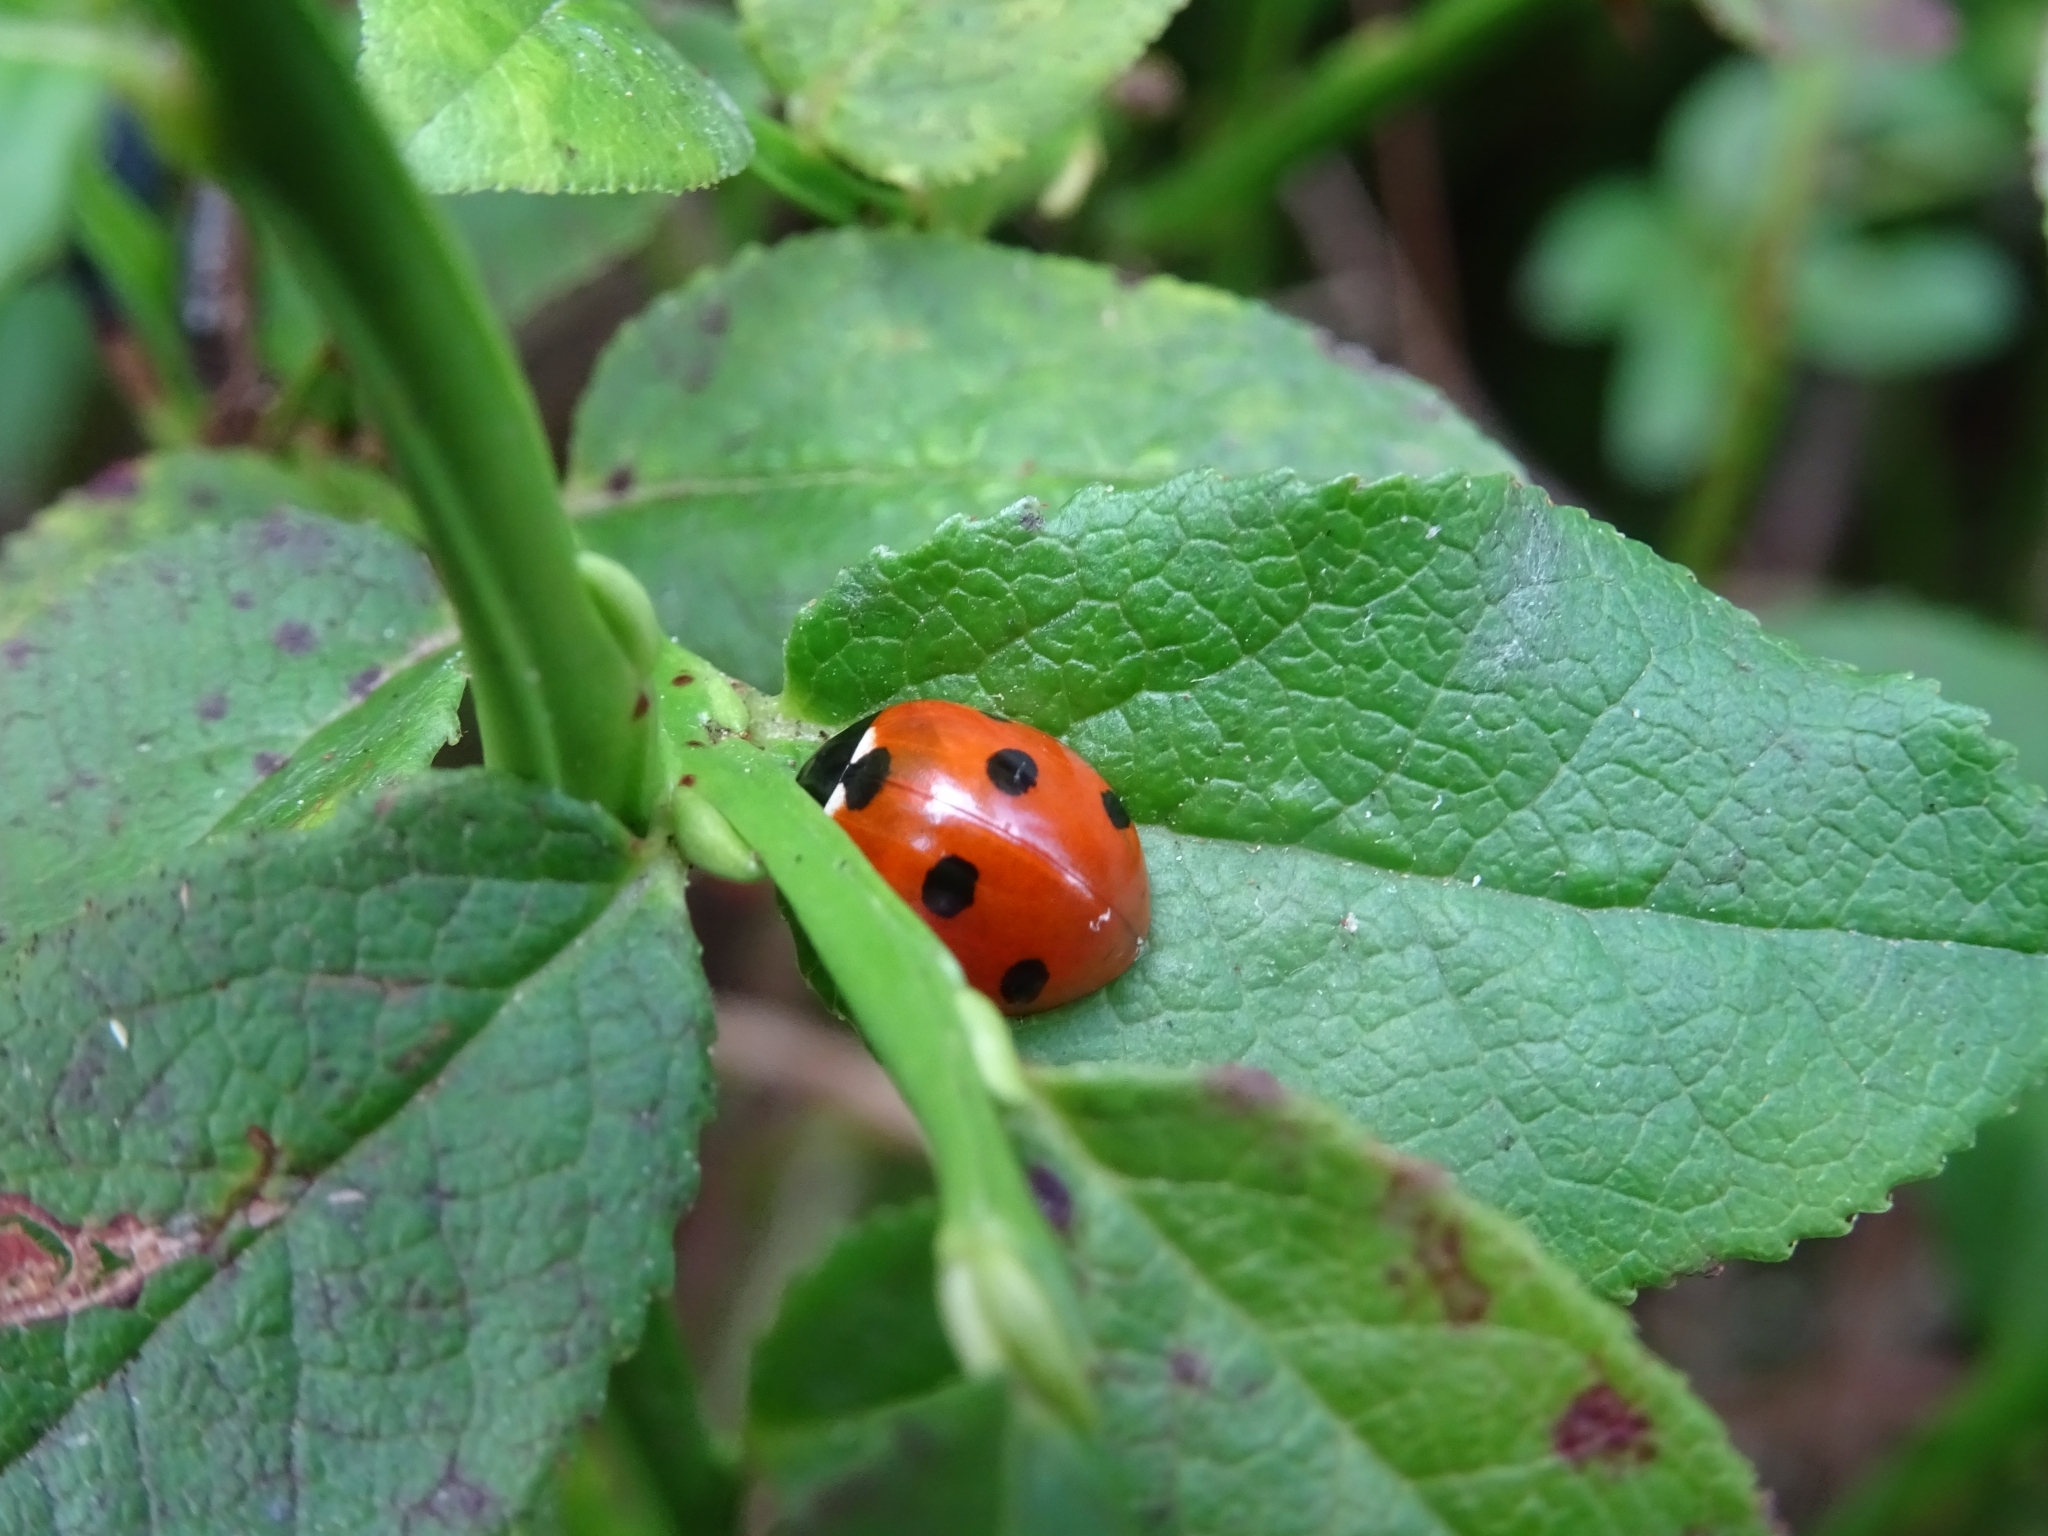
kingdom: Animalia
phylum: Arthropoda
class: Insecta
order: Coleoptera
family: Coccinellidae
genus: Coccinella
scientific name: Coccinella septempunctata
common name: Sevenspotted lady beetle
